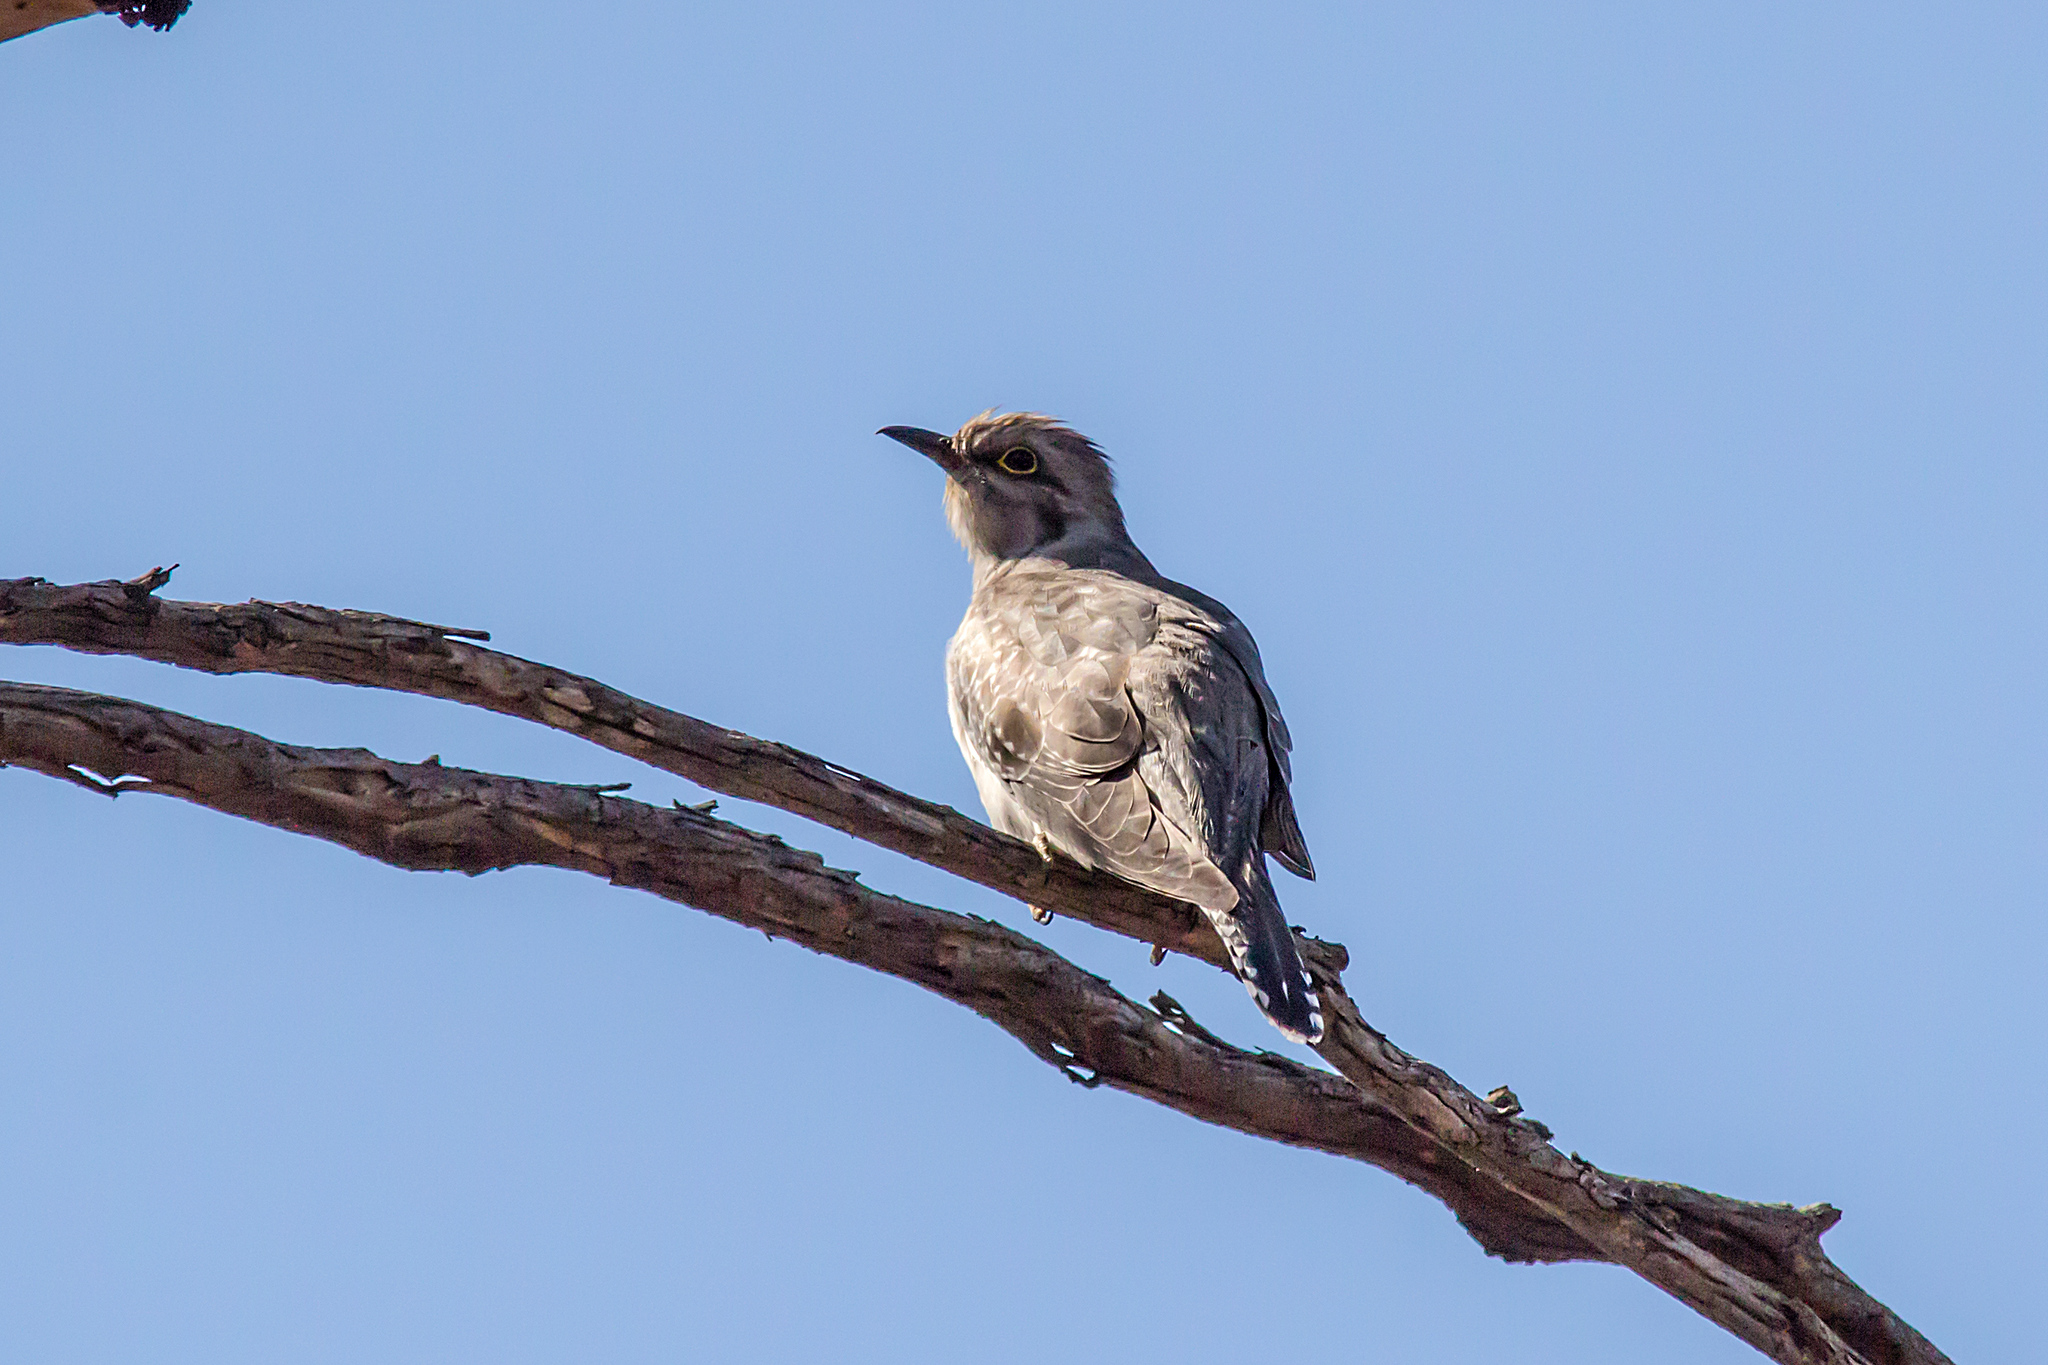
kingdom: Animalia
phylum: Chordata
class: Aves
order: Cuculiformes
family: Cuculidae
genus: Cuculus
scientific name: Cuculus pallidus
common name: Pallid cuckoo
